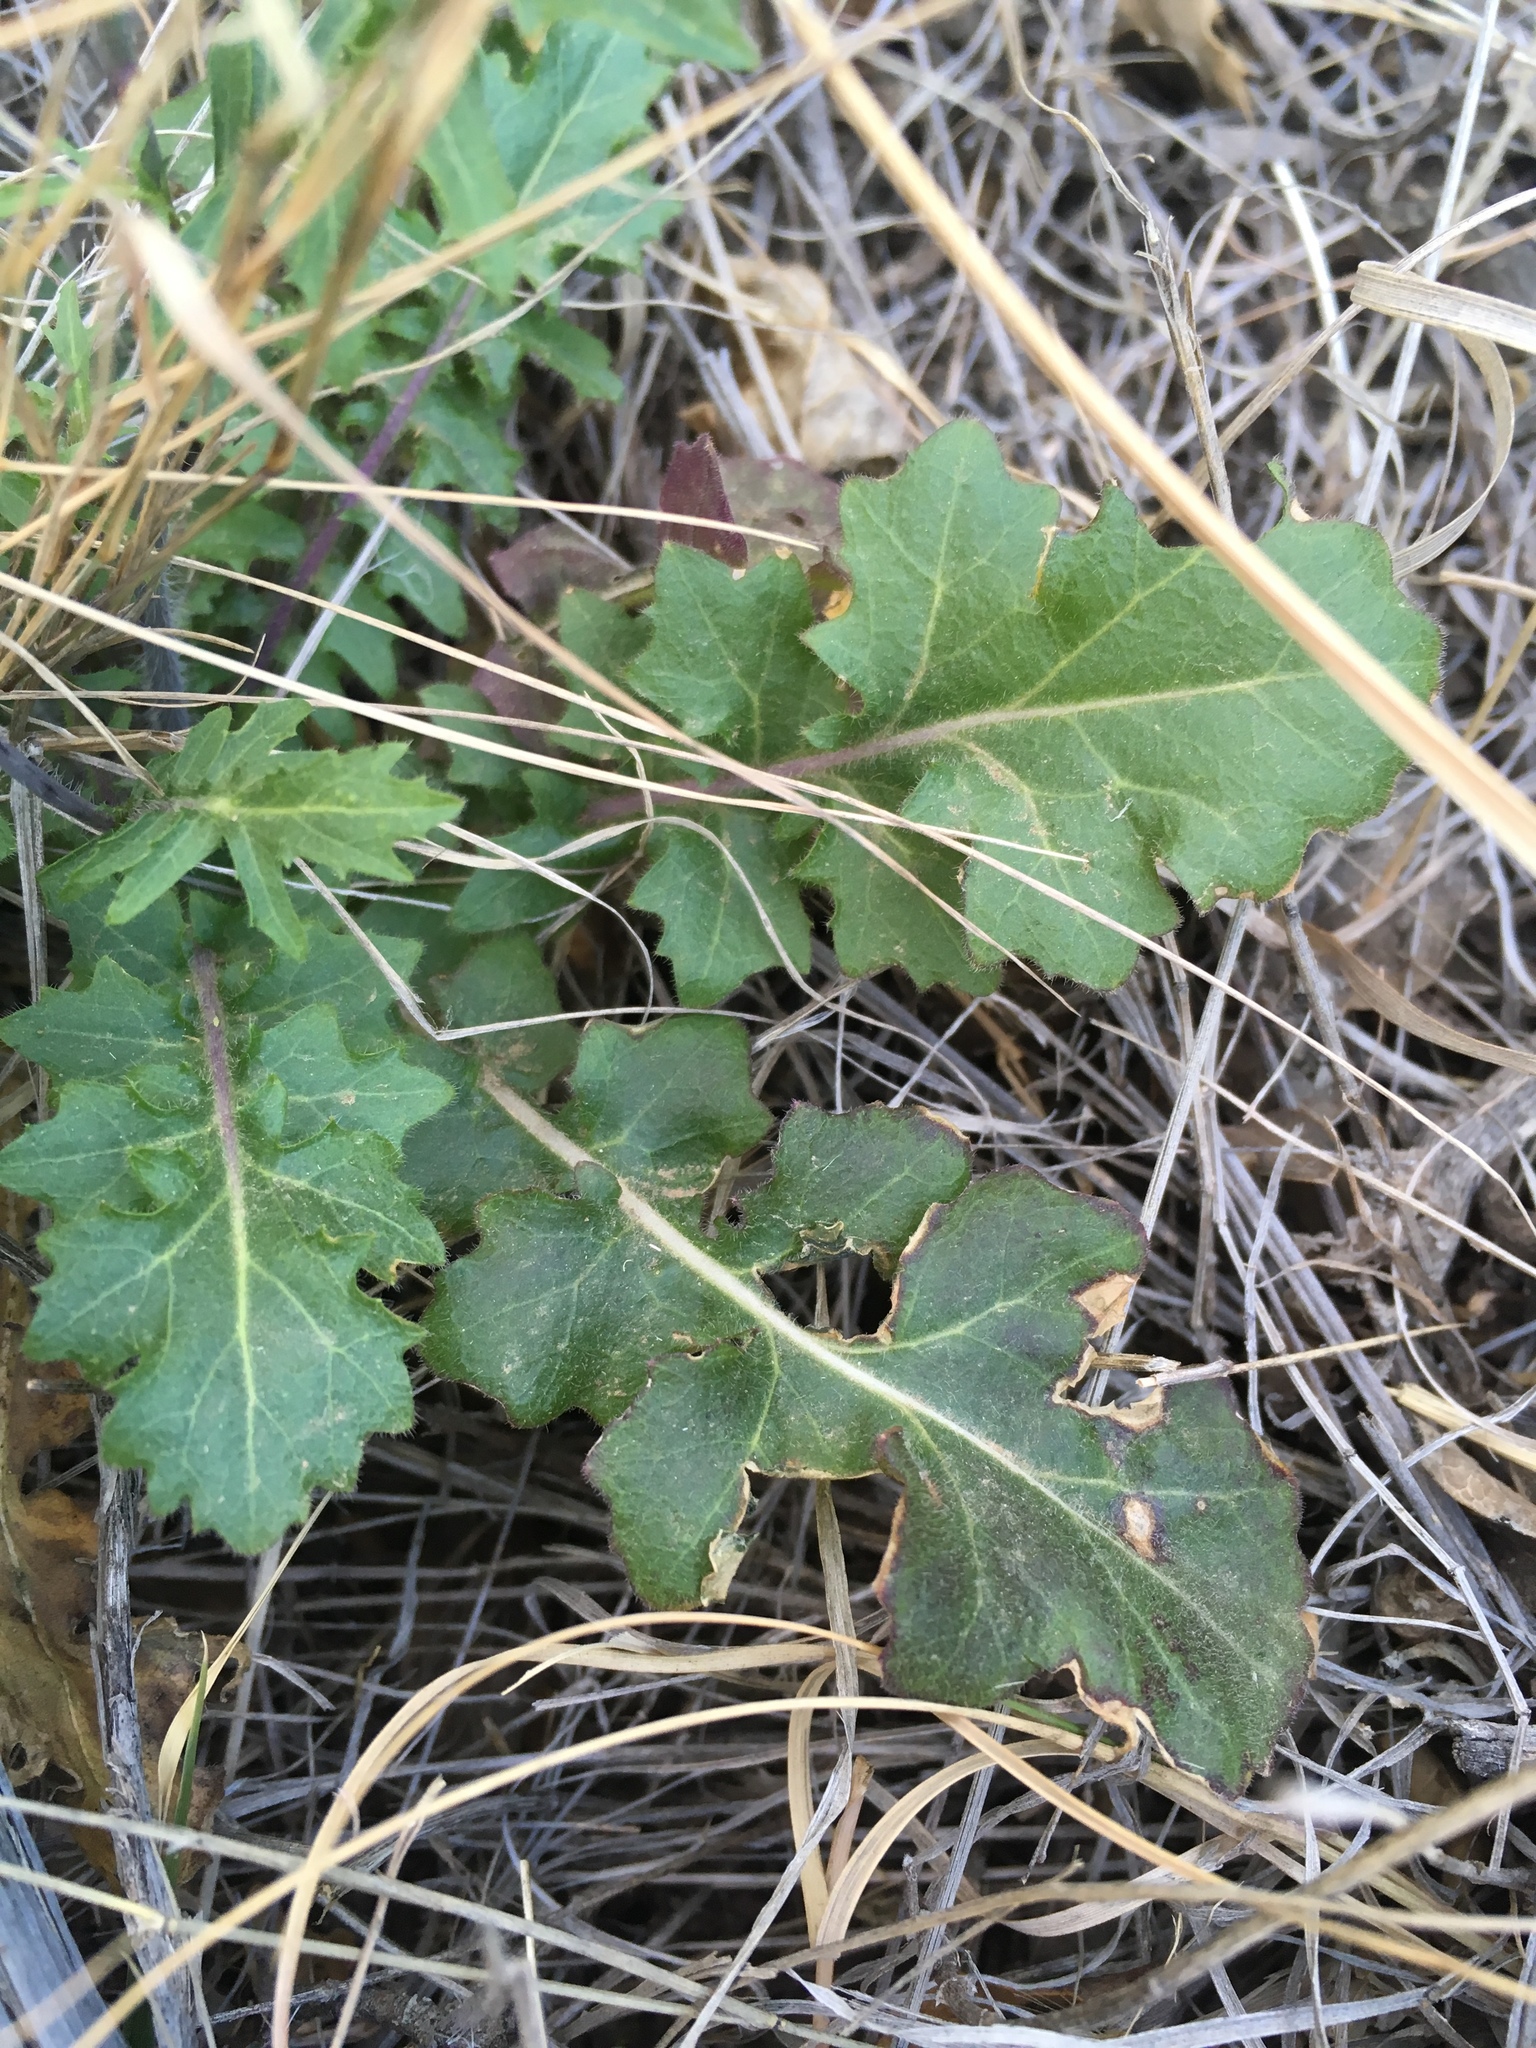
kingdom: Plantae
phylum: Tracheophyta
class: Magnoliopsida
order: Brassicales
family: Brassicaceae
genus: Dryopetalon
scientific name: Dryopetalon runcinatum
